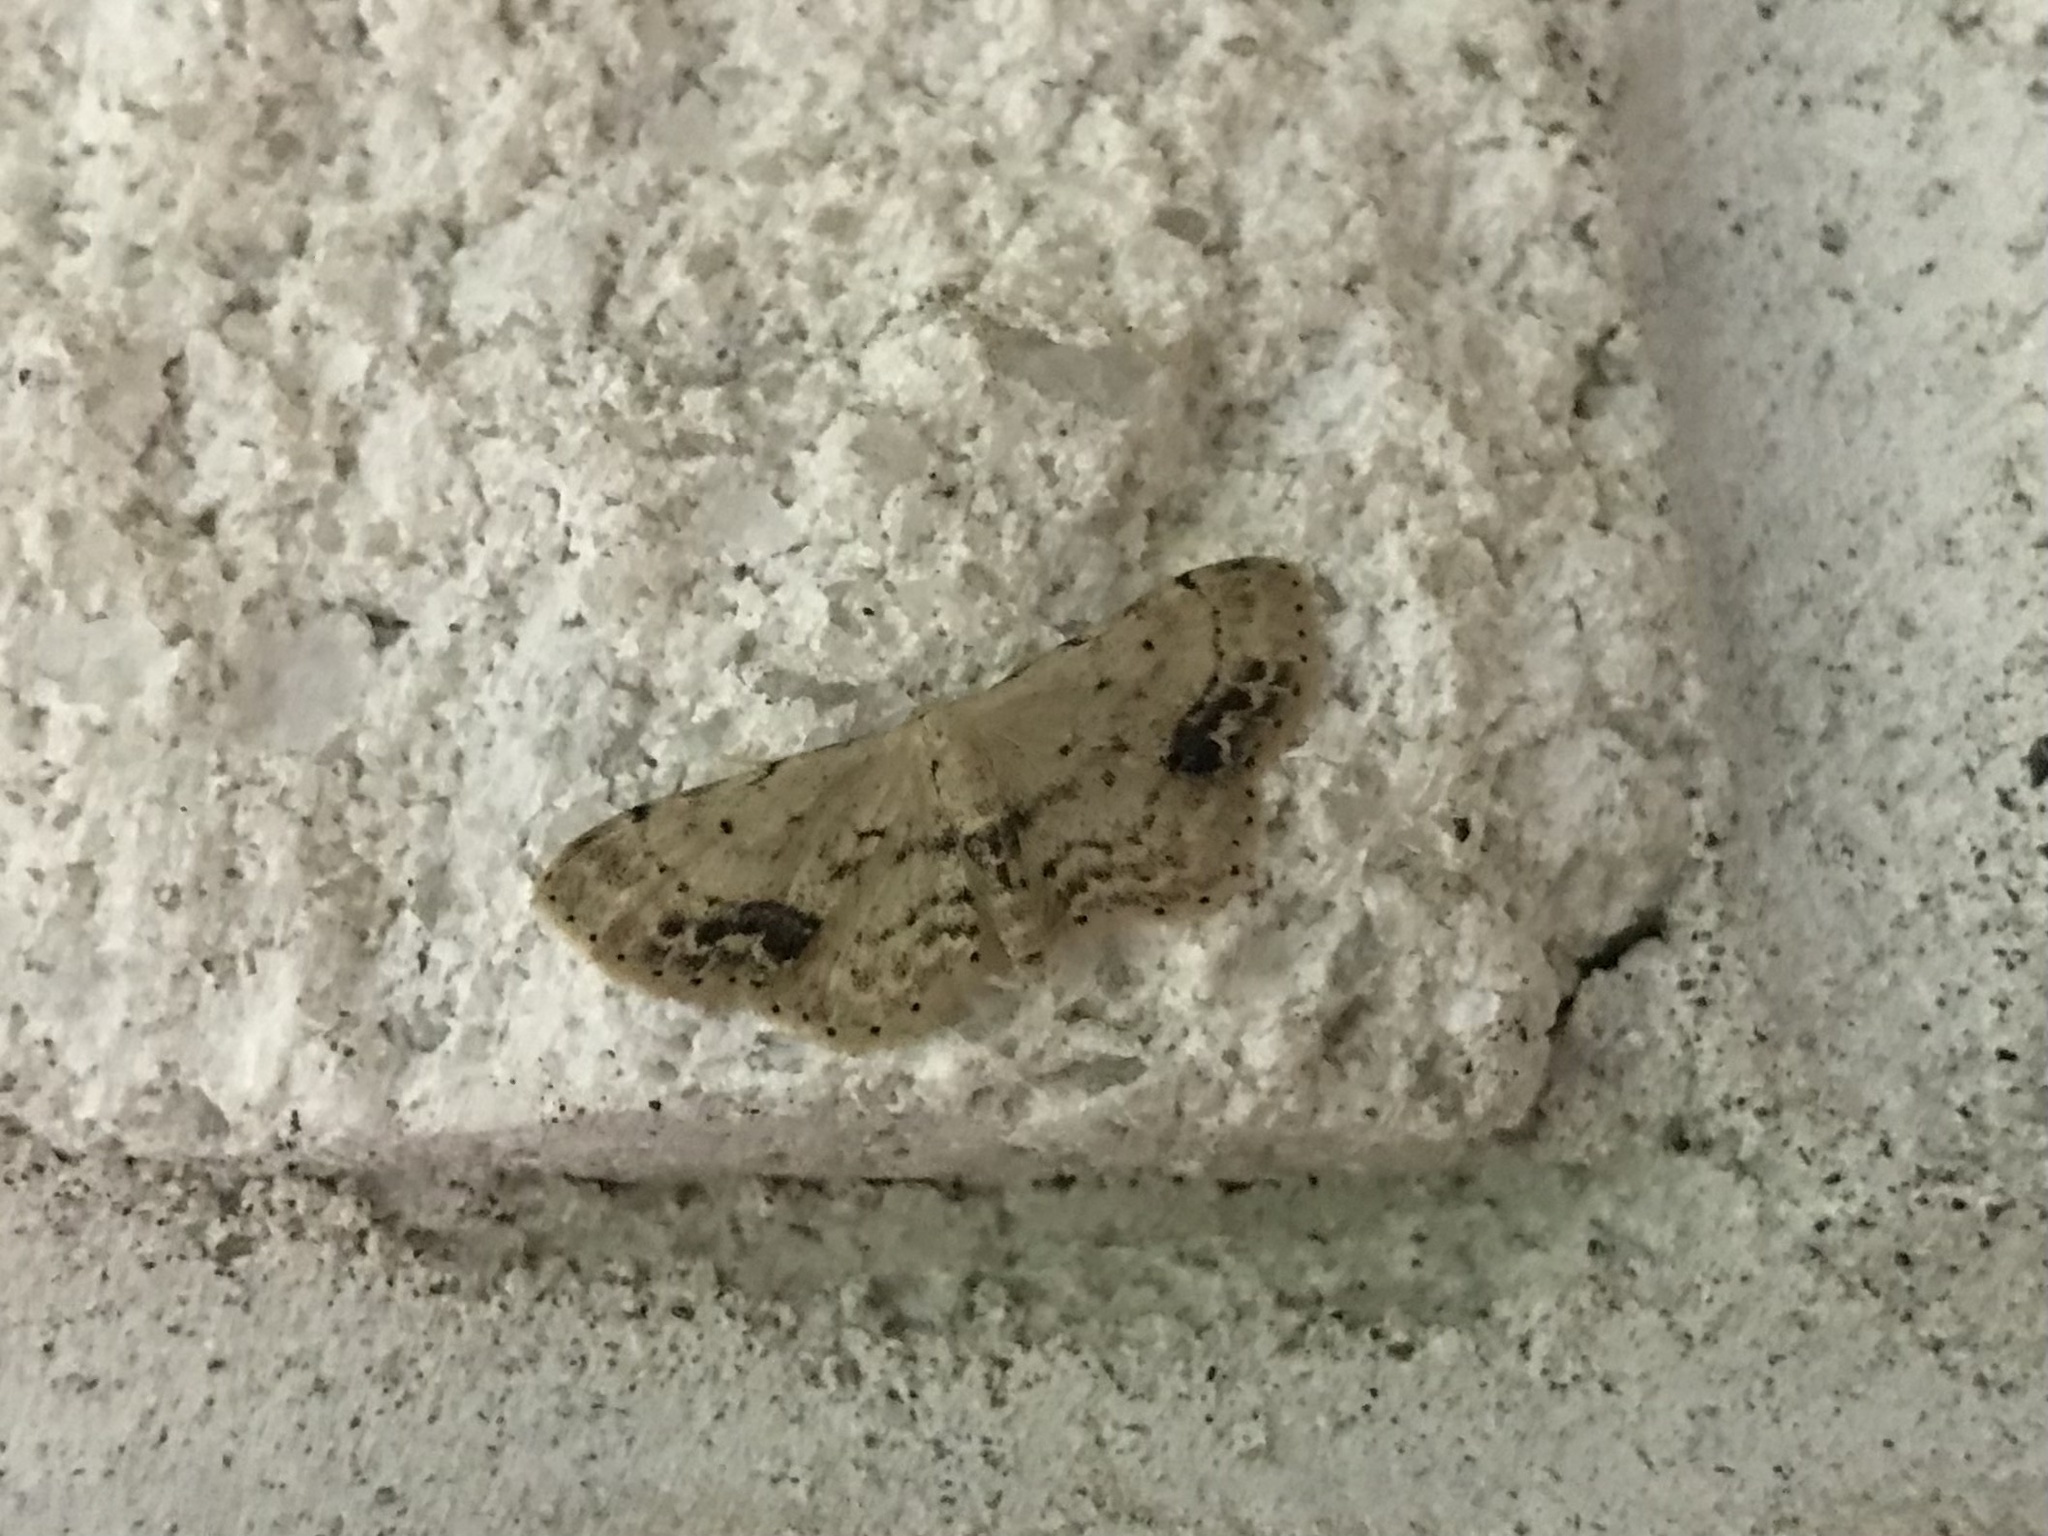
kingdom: Animalia
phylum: Arthropoda
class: Insecta
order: Lepidoptera
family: Geometridae
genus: Idaea
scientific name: Idaea dimidiata
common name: Single-dotted wave
